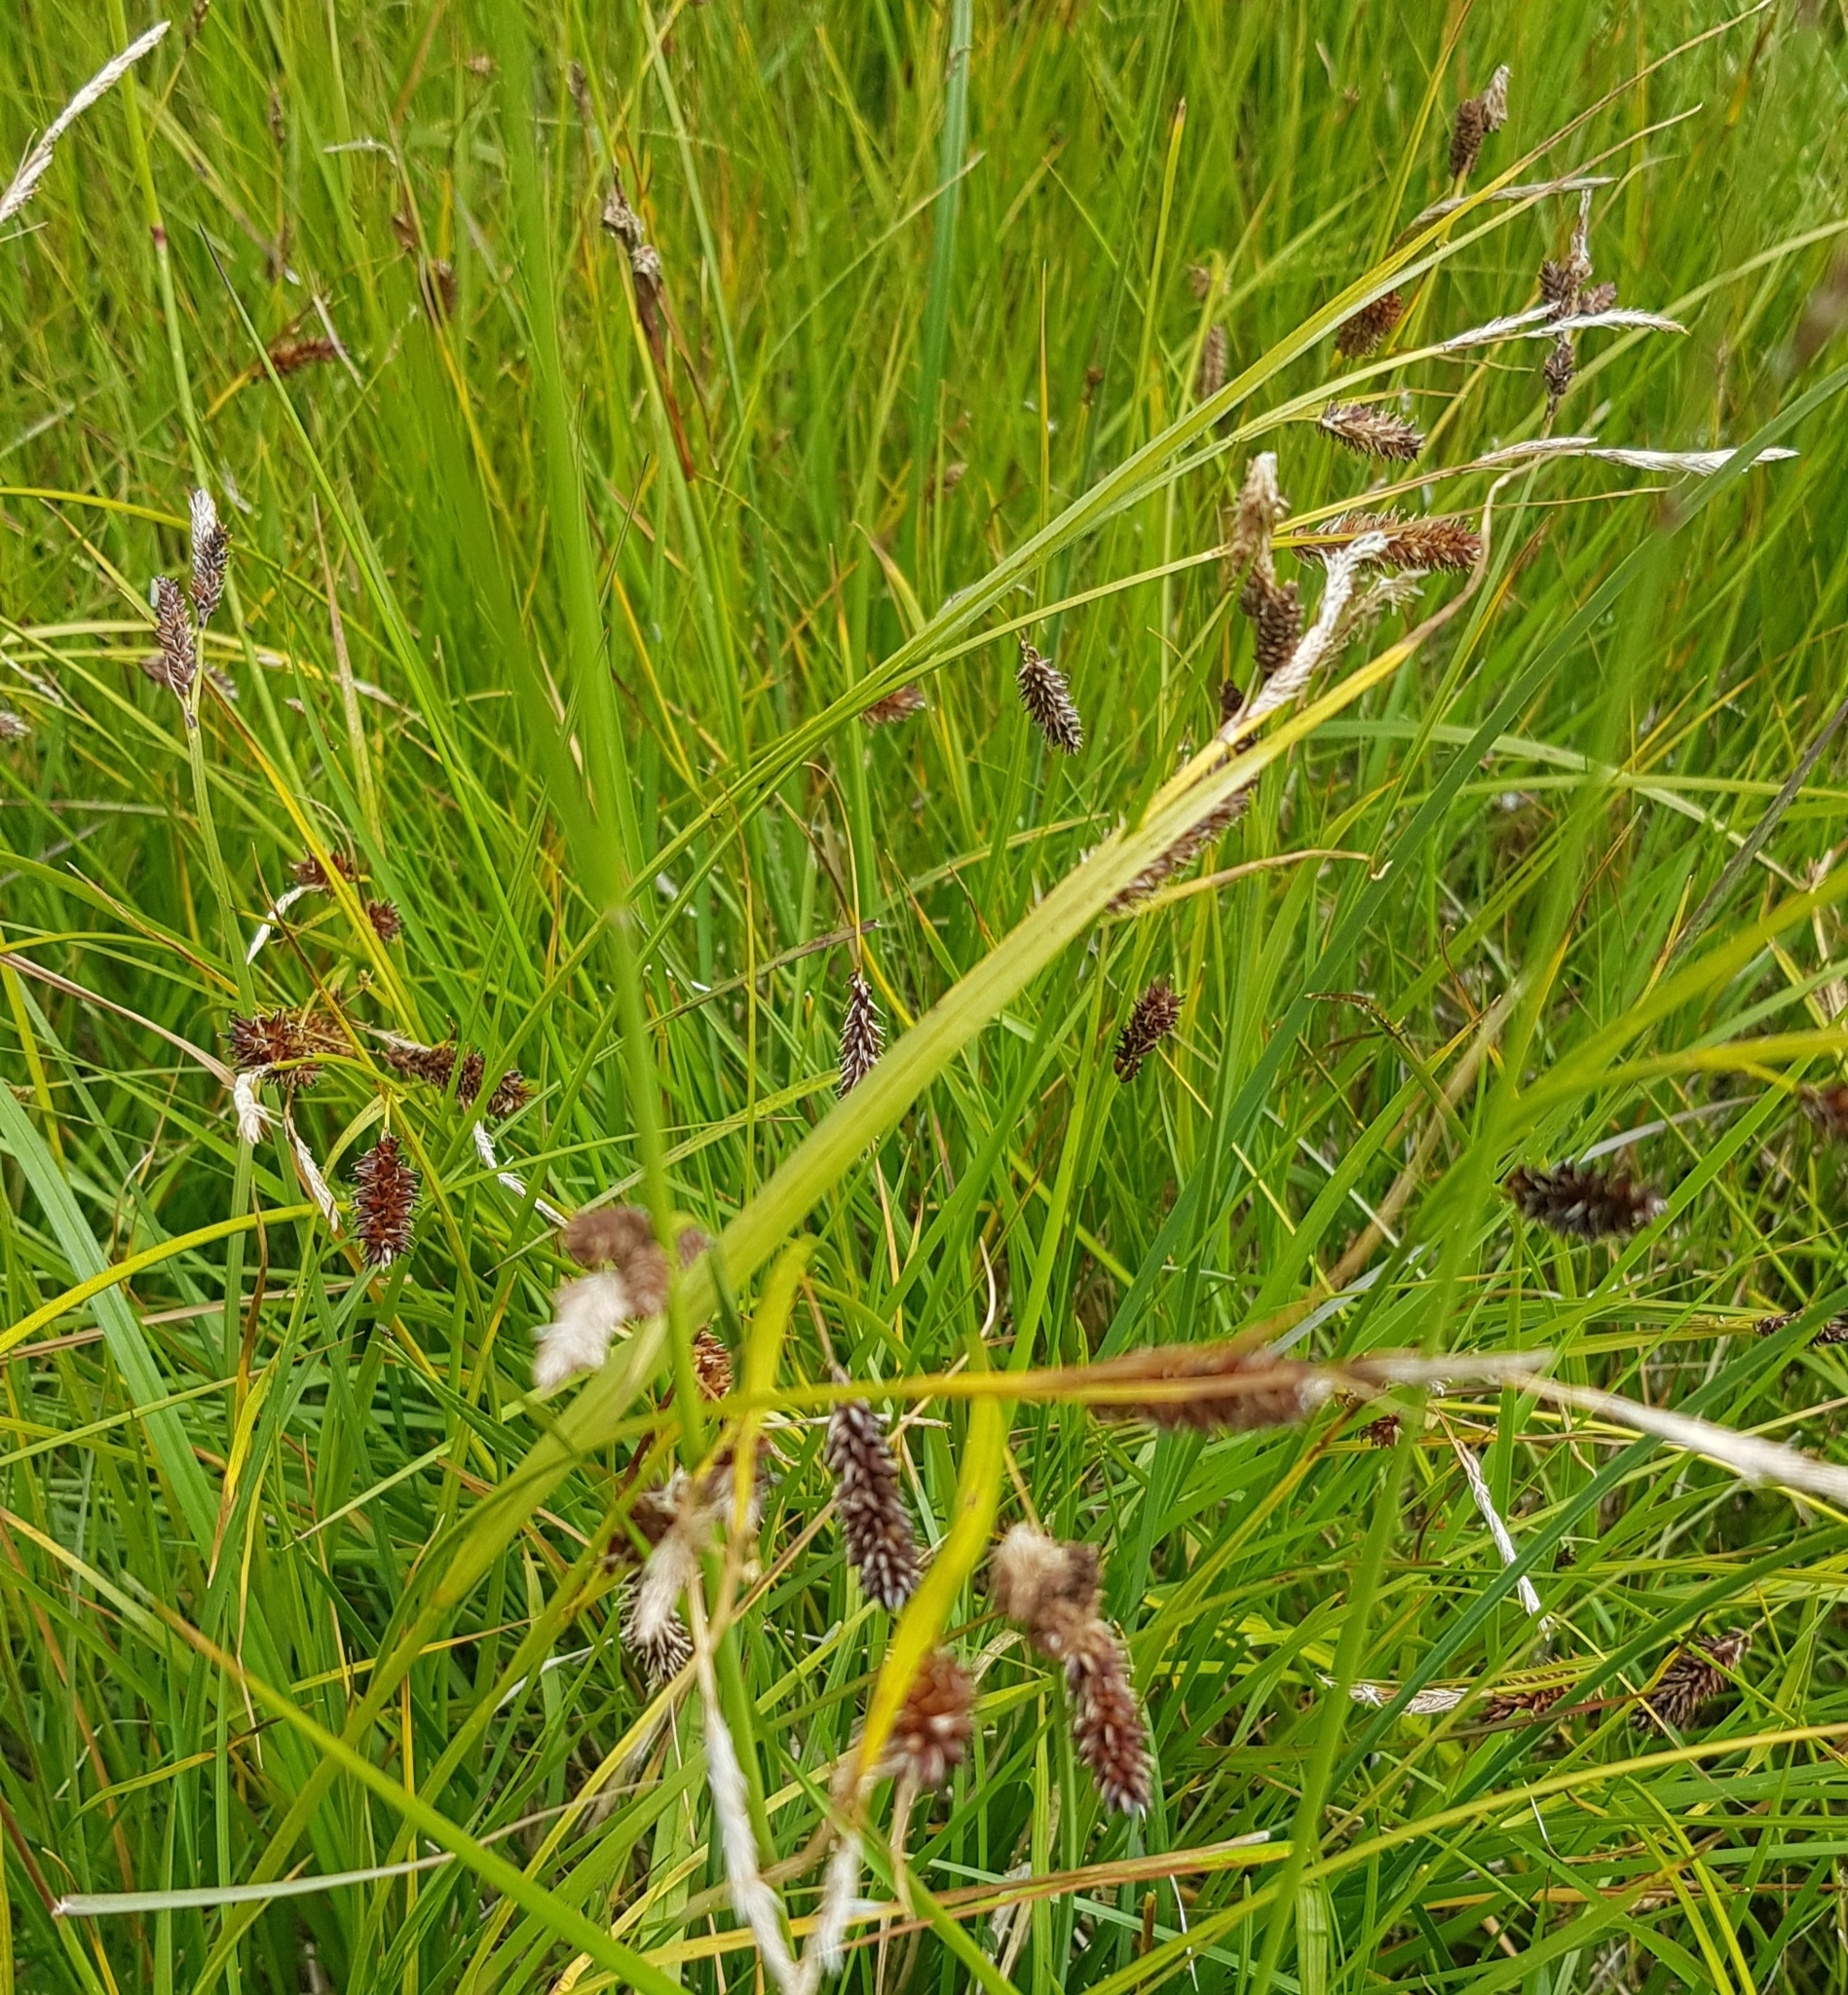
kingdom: Plantae
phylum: Tracheophyta
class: Liliopsida
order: Poales
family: Cyperaceae
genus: Carex
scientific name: Carex atherodes
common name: Wheat sedge
